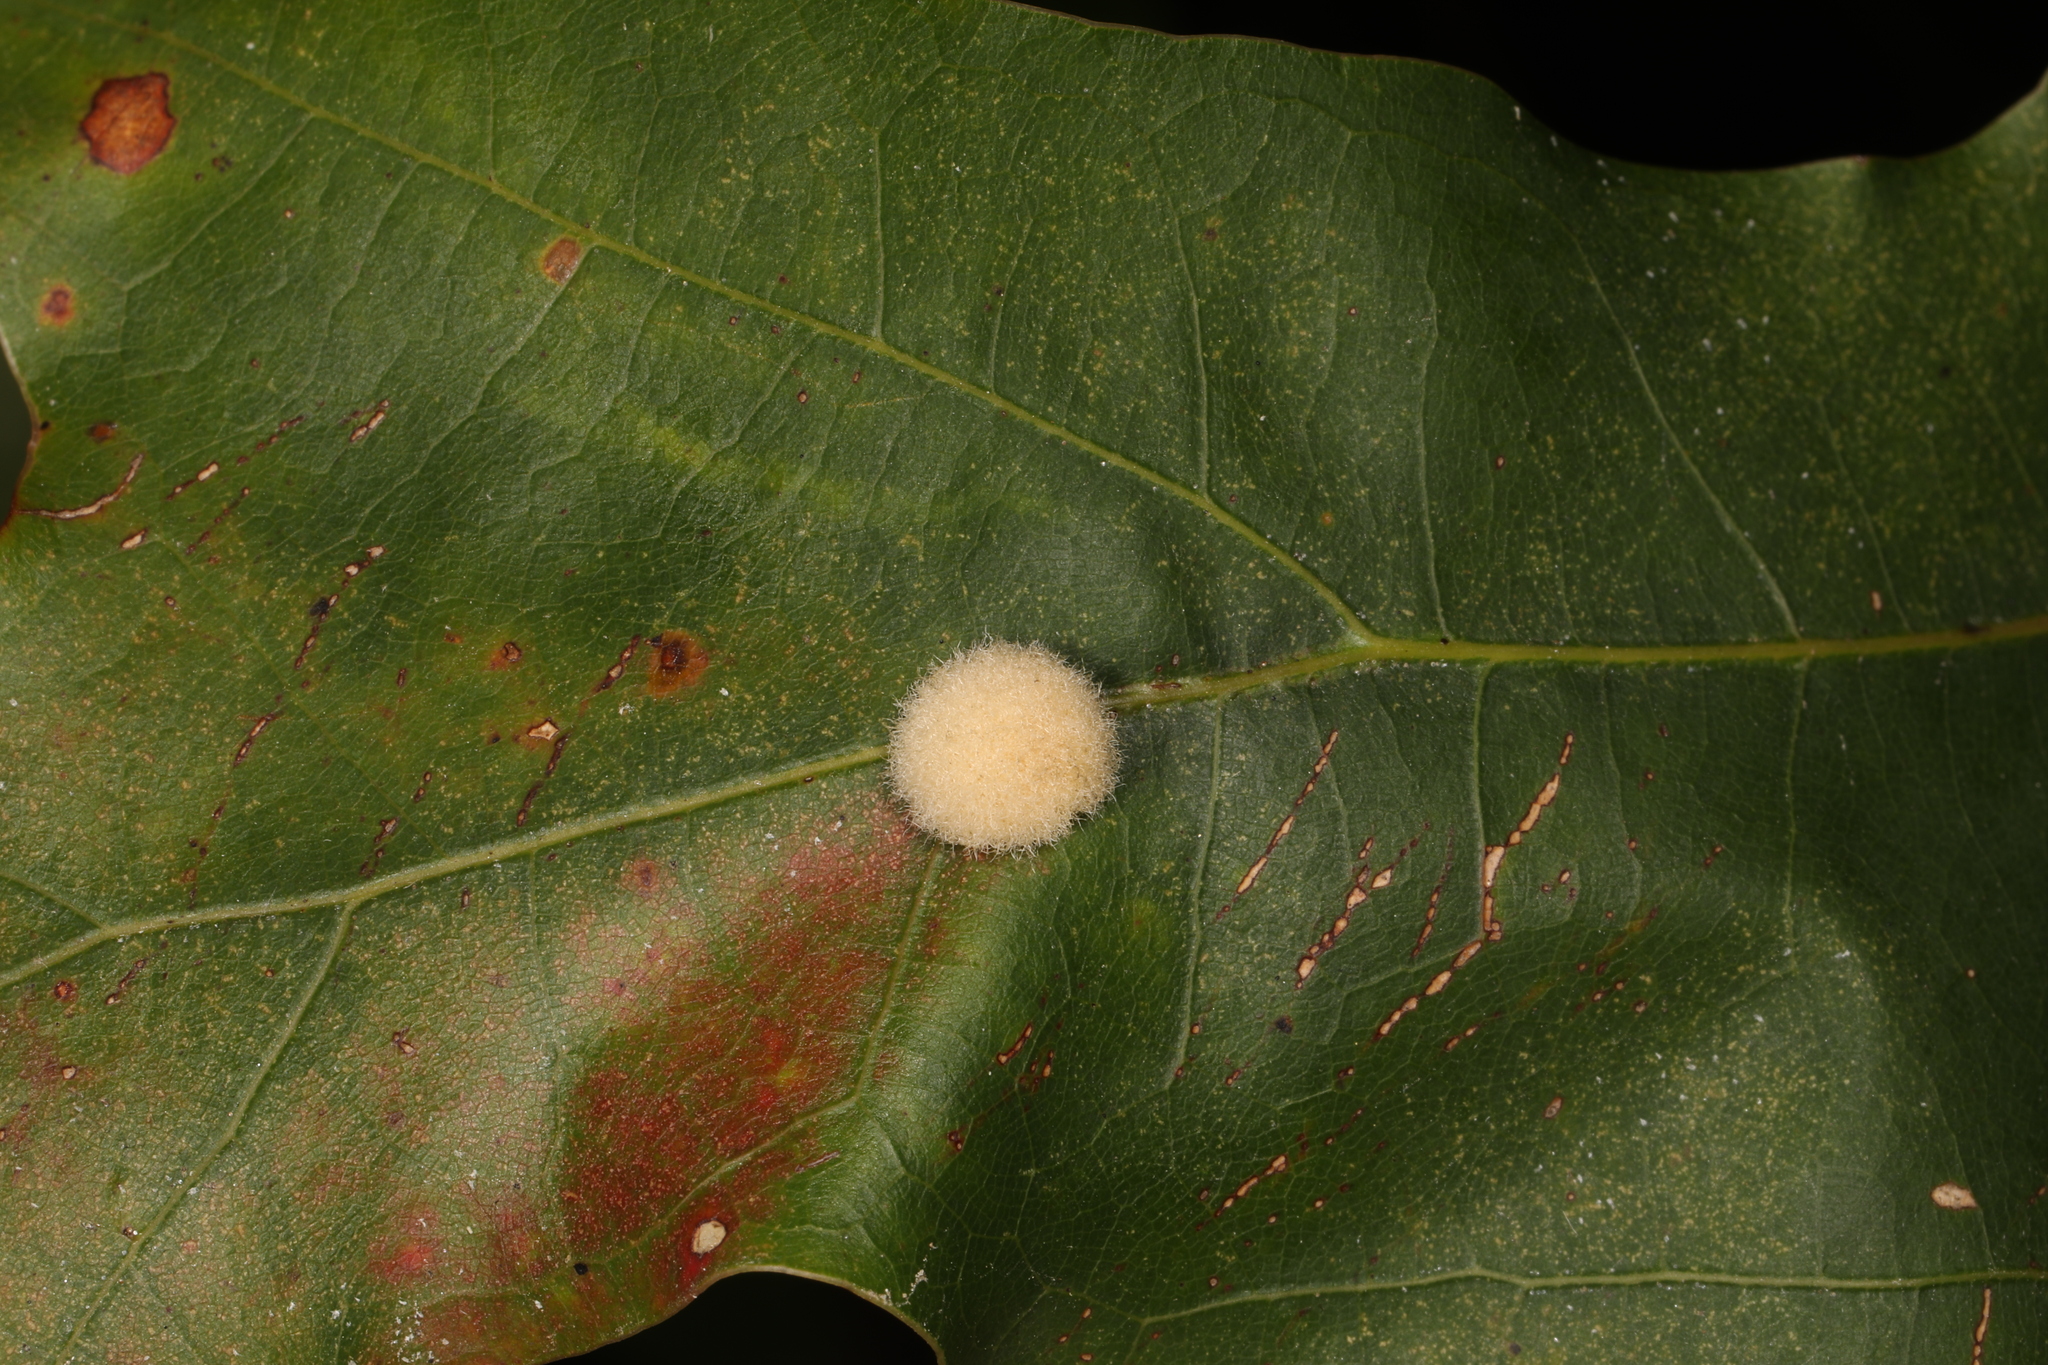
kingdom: Animalia
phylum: Arthropoda
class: Insecta
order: Hymenoptera
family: Cynipidae
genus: Callirhytis
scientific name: Callirhytis
